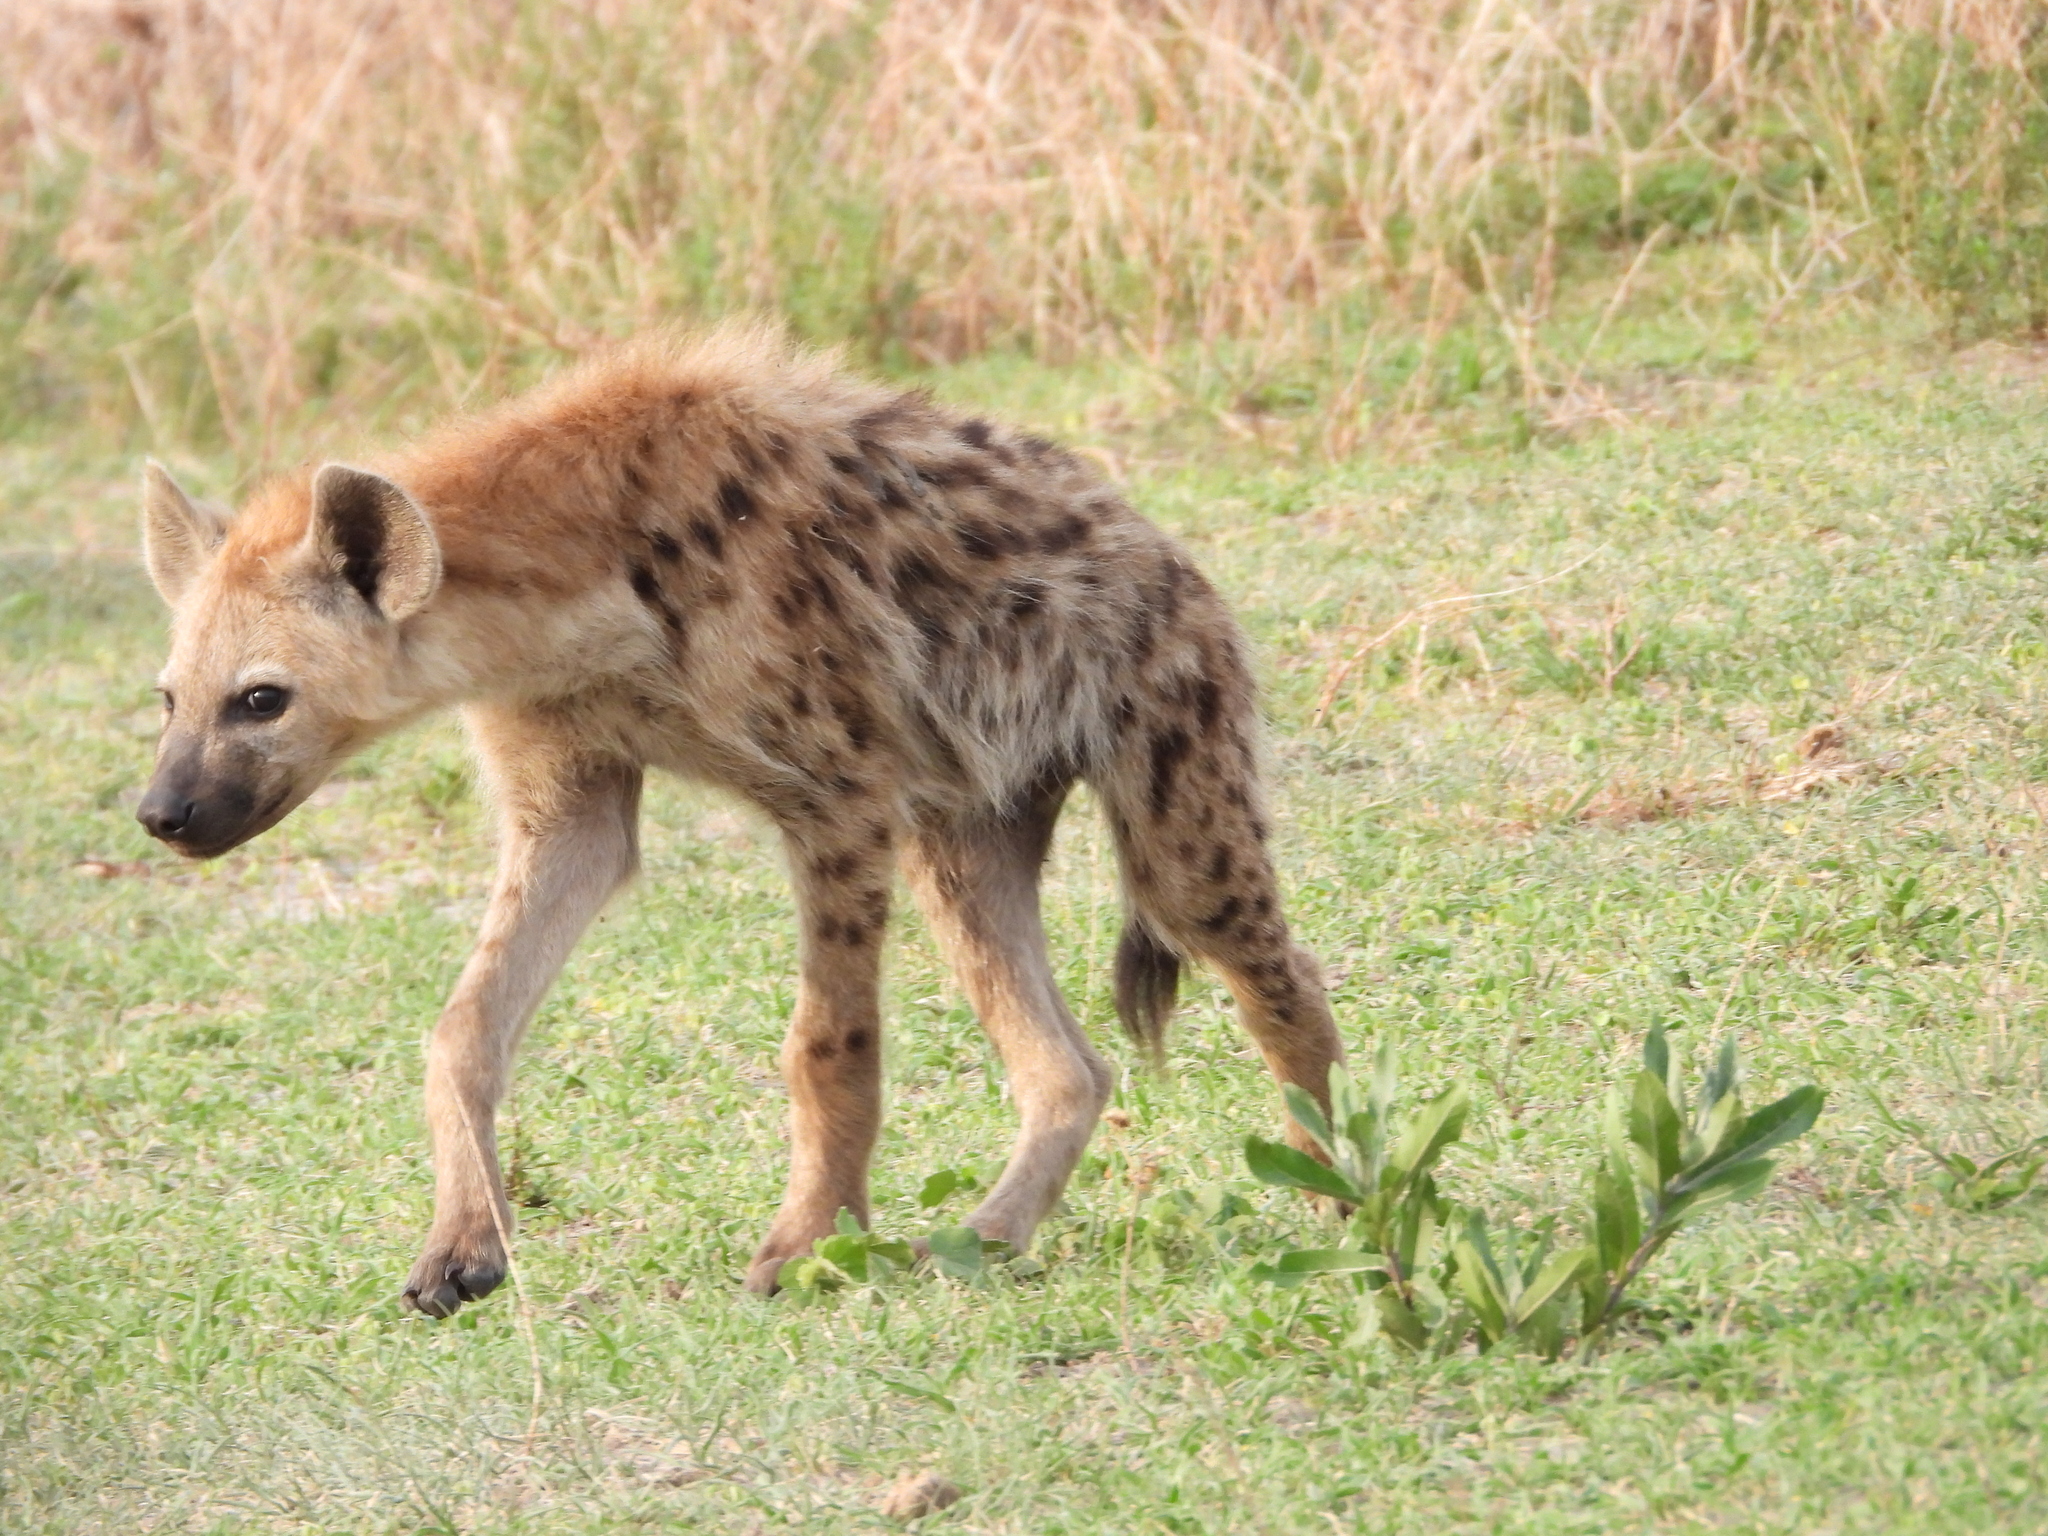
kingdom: Animalia
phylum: Chordata
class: Mammalia
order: Carnivora
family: Hyaenidae
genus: Crocuta
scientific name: Crocuta crocuta
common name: Spotted hyaena
